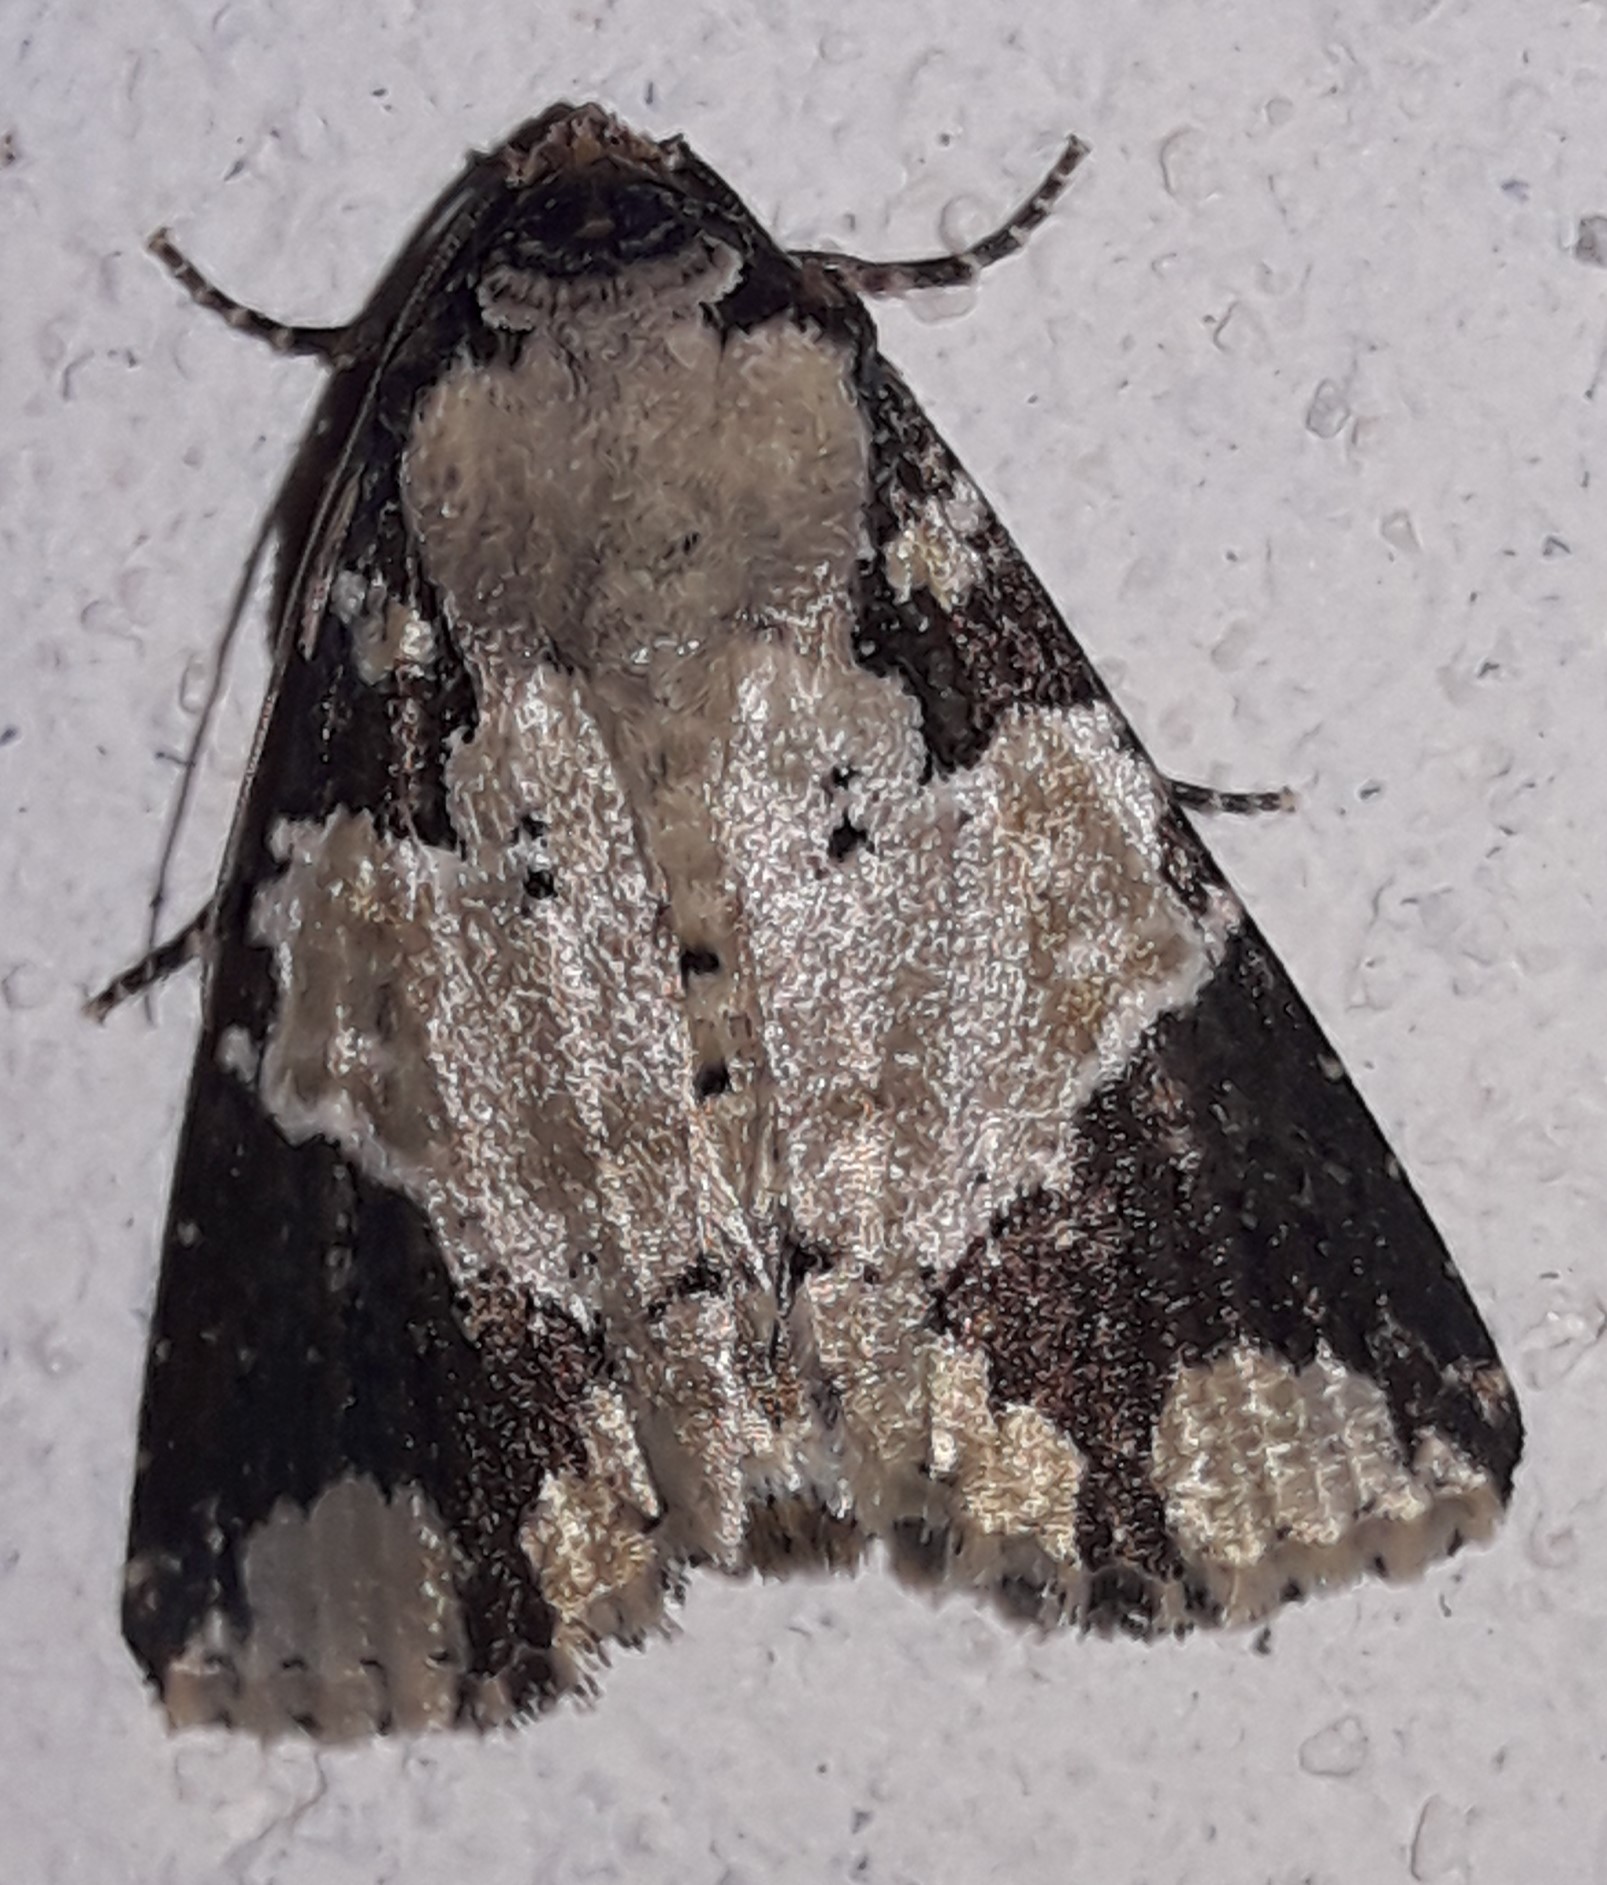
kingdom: Animalia
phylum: Arthropoda
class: Insecta
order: Lepidoptera
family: Noctuidae
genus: Condica
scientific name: Condica cupentia
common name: Splotched groundling
